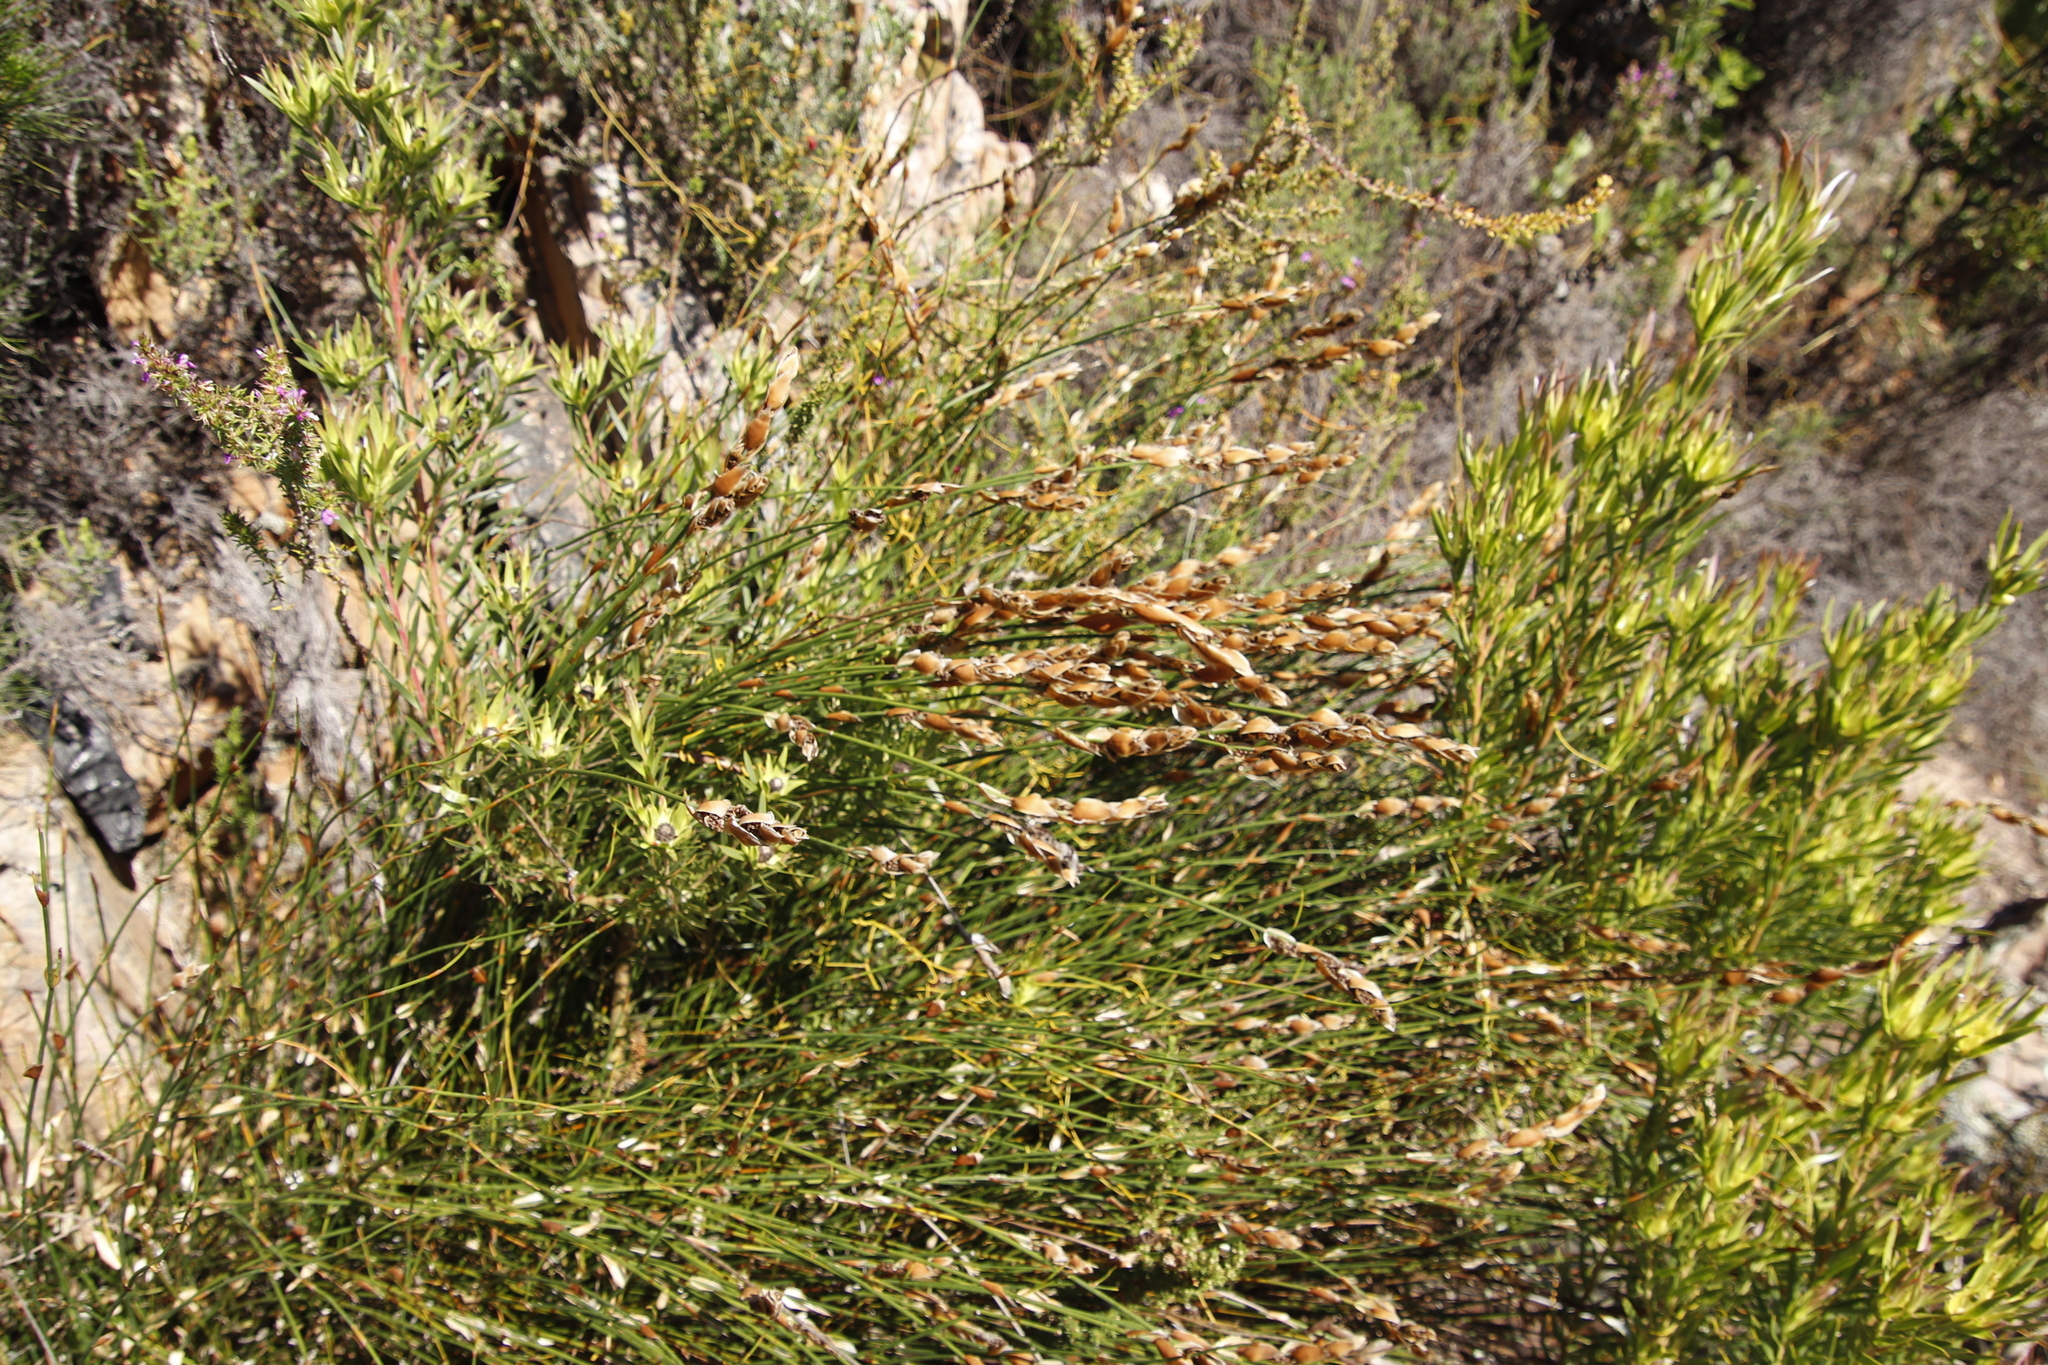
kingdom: Plantae
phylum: Tracheophyta
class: Magnoliopsida
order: Proteales
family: Proteaceae
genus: Leucadendron
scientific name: Leucadendron xanthoconus
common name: Sickle-leaf conebush
